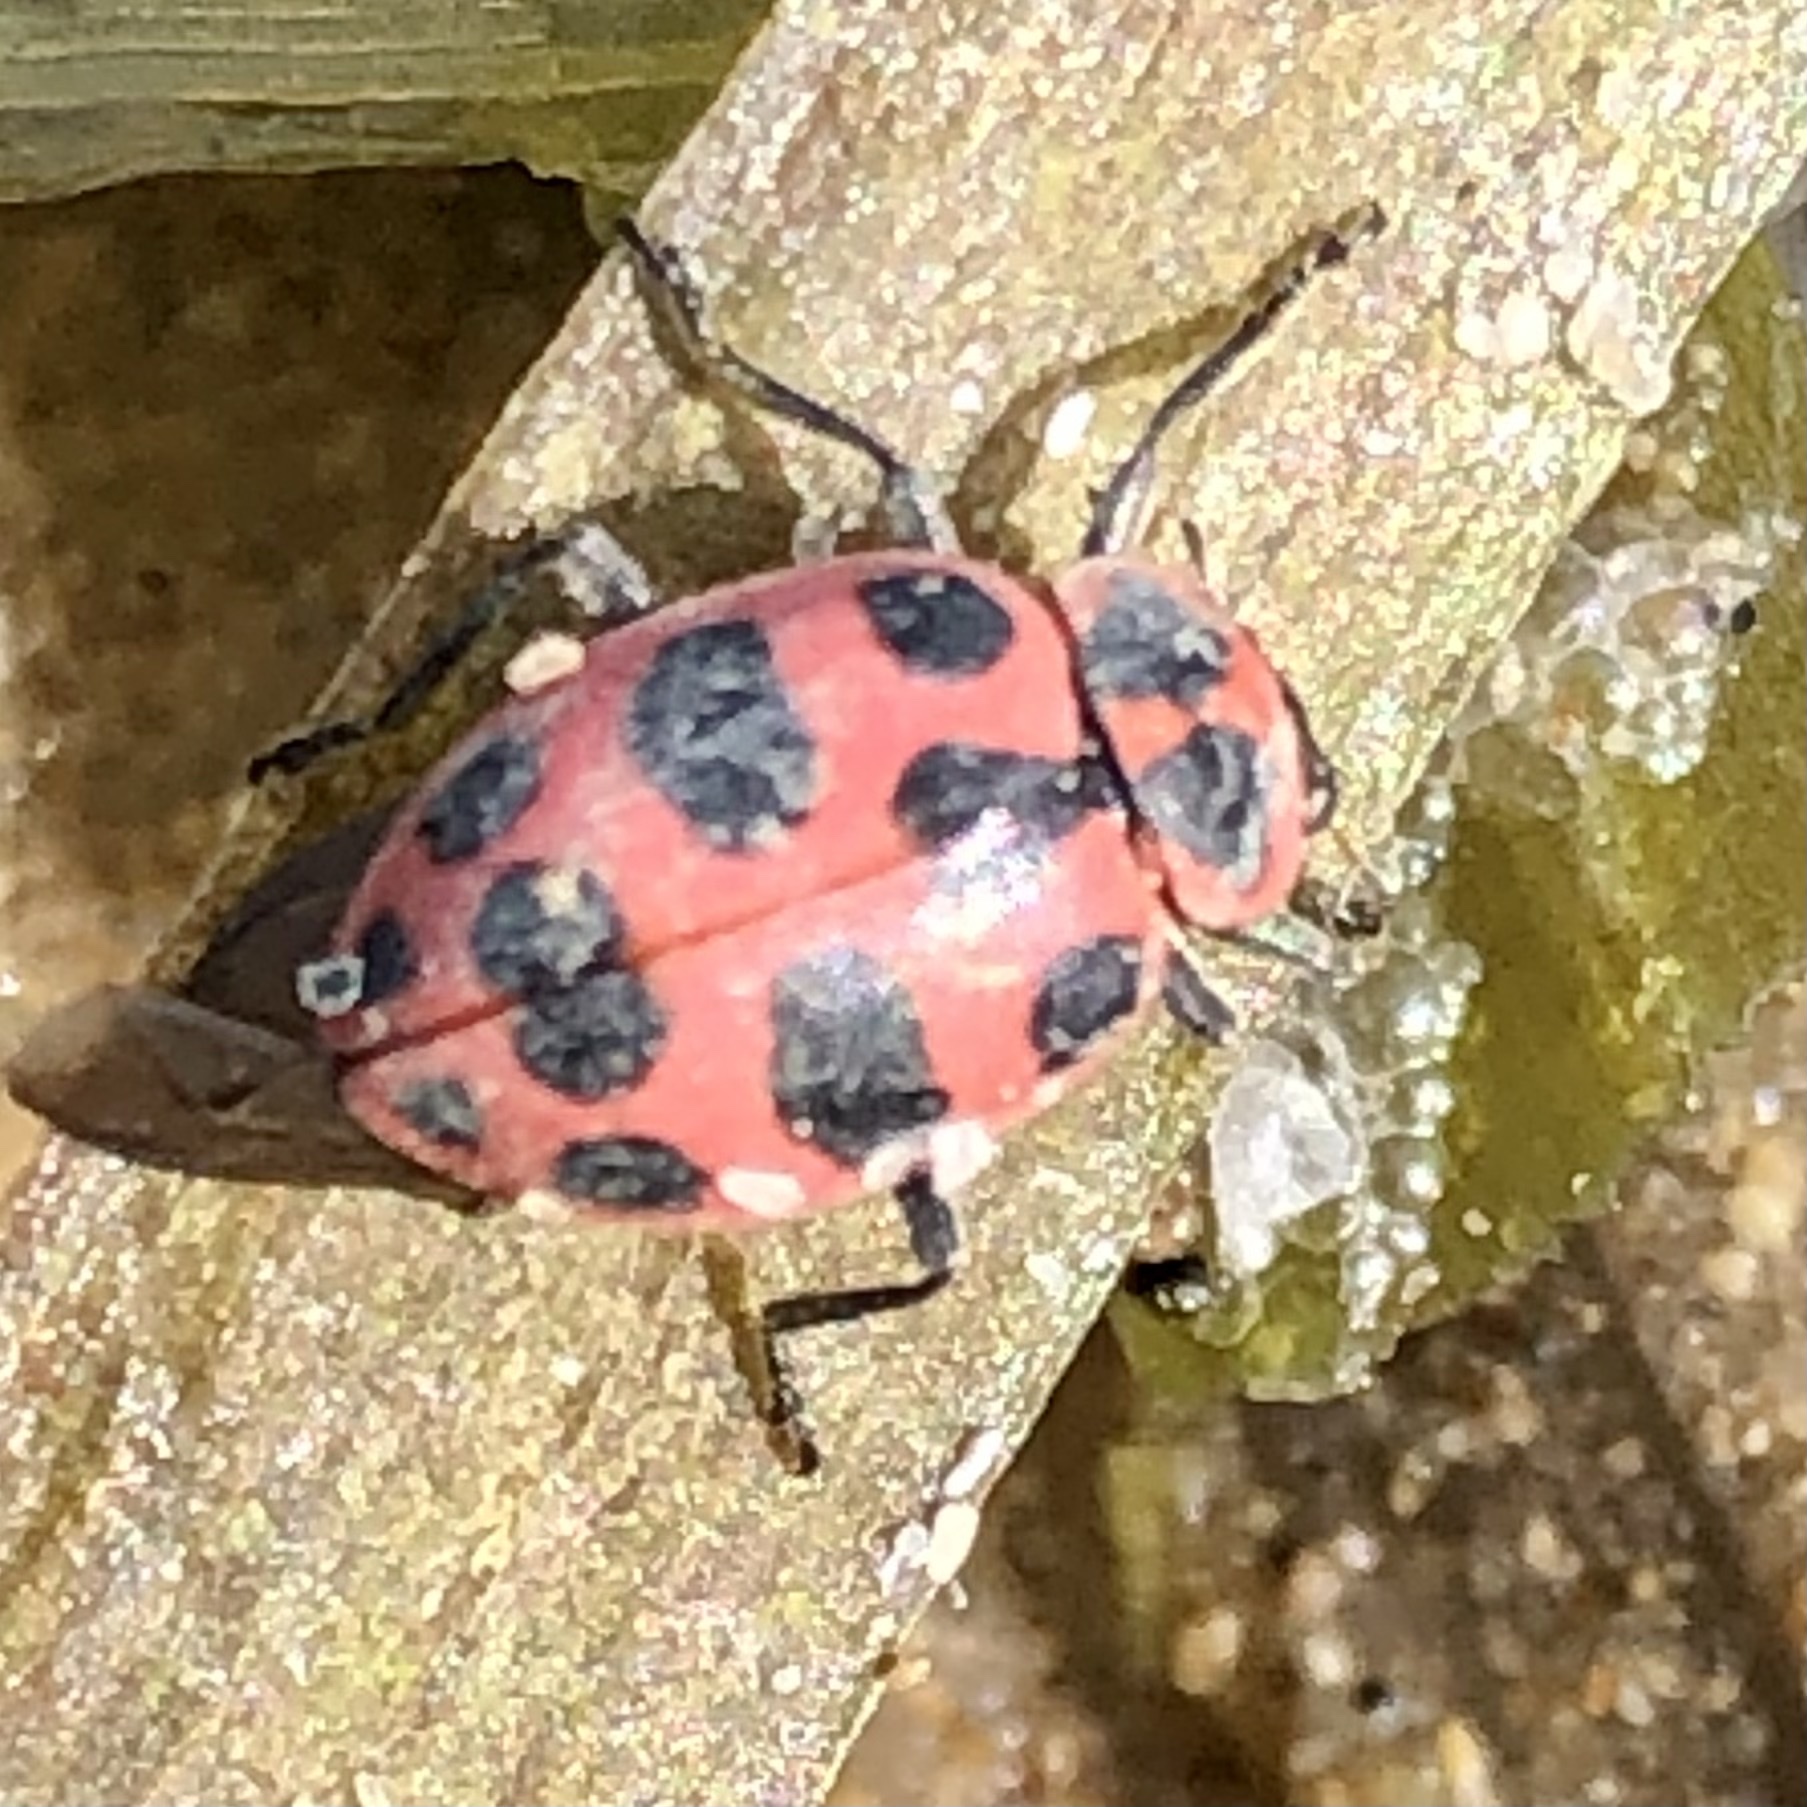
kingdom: Animalia
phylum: Arthropoda
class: Insecta
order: Coleoptera
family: Coccinellidae
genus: Coleomegilla
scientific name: Coleomegilla maculata
